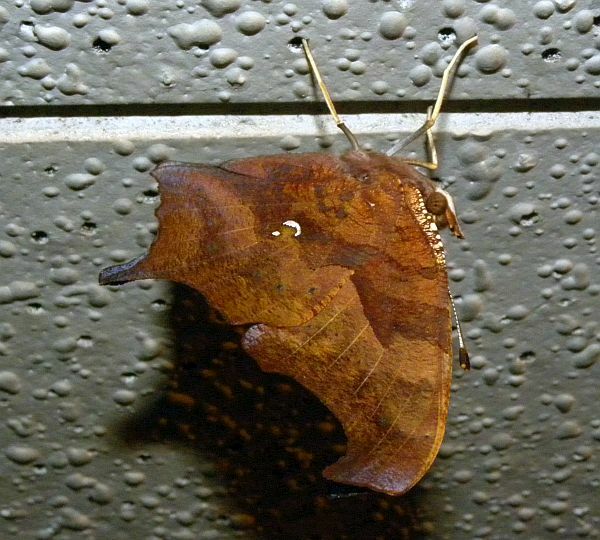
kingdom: Animalia
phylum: Arthropoda
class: Insecta
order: Lepidoptera
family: Nymphalidae
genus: Polygonia
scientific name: Polygonia interrogationis
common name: Question mark
